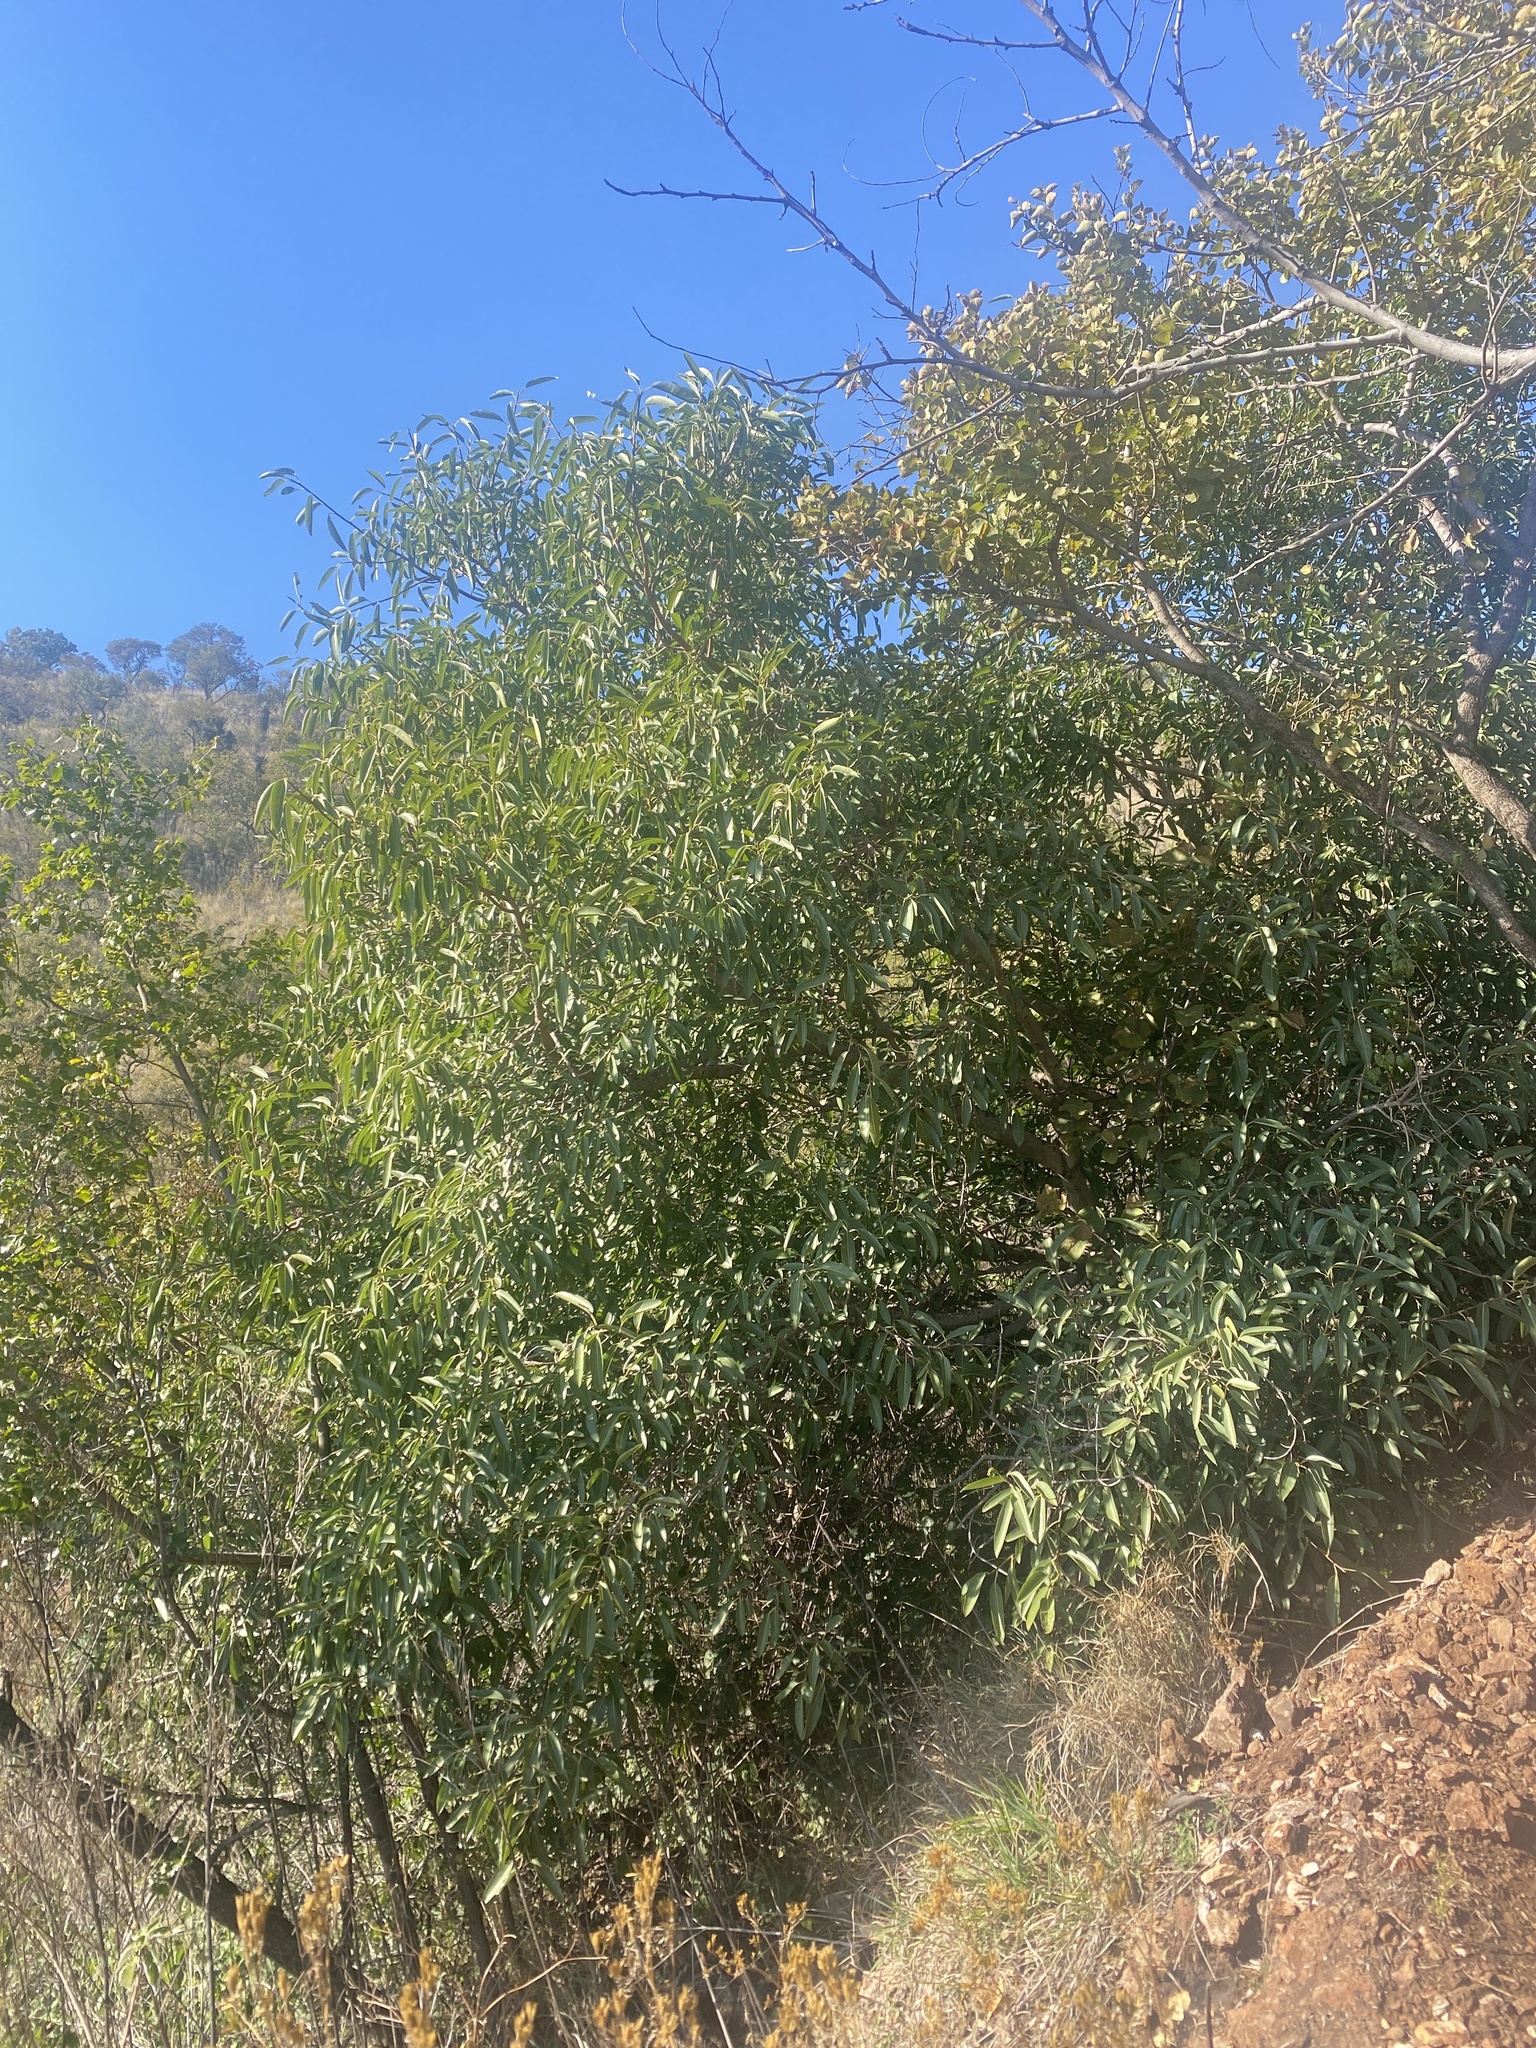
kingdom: Plantae
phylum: Tracheophyta
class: Magnoliopsida
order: Rosales
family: Moraceae
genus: Ficus
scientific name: Ficus salicifolia
